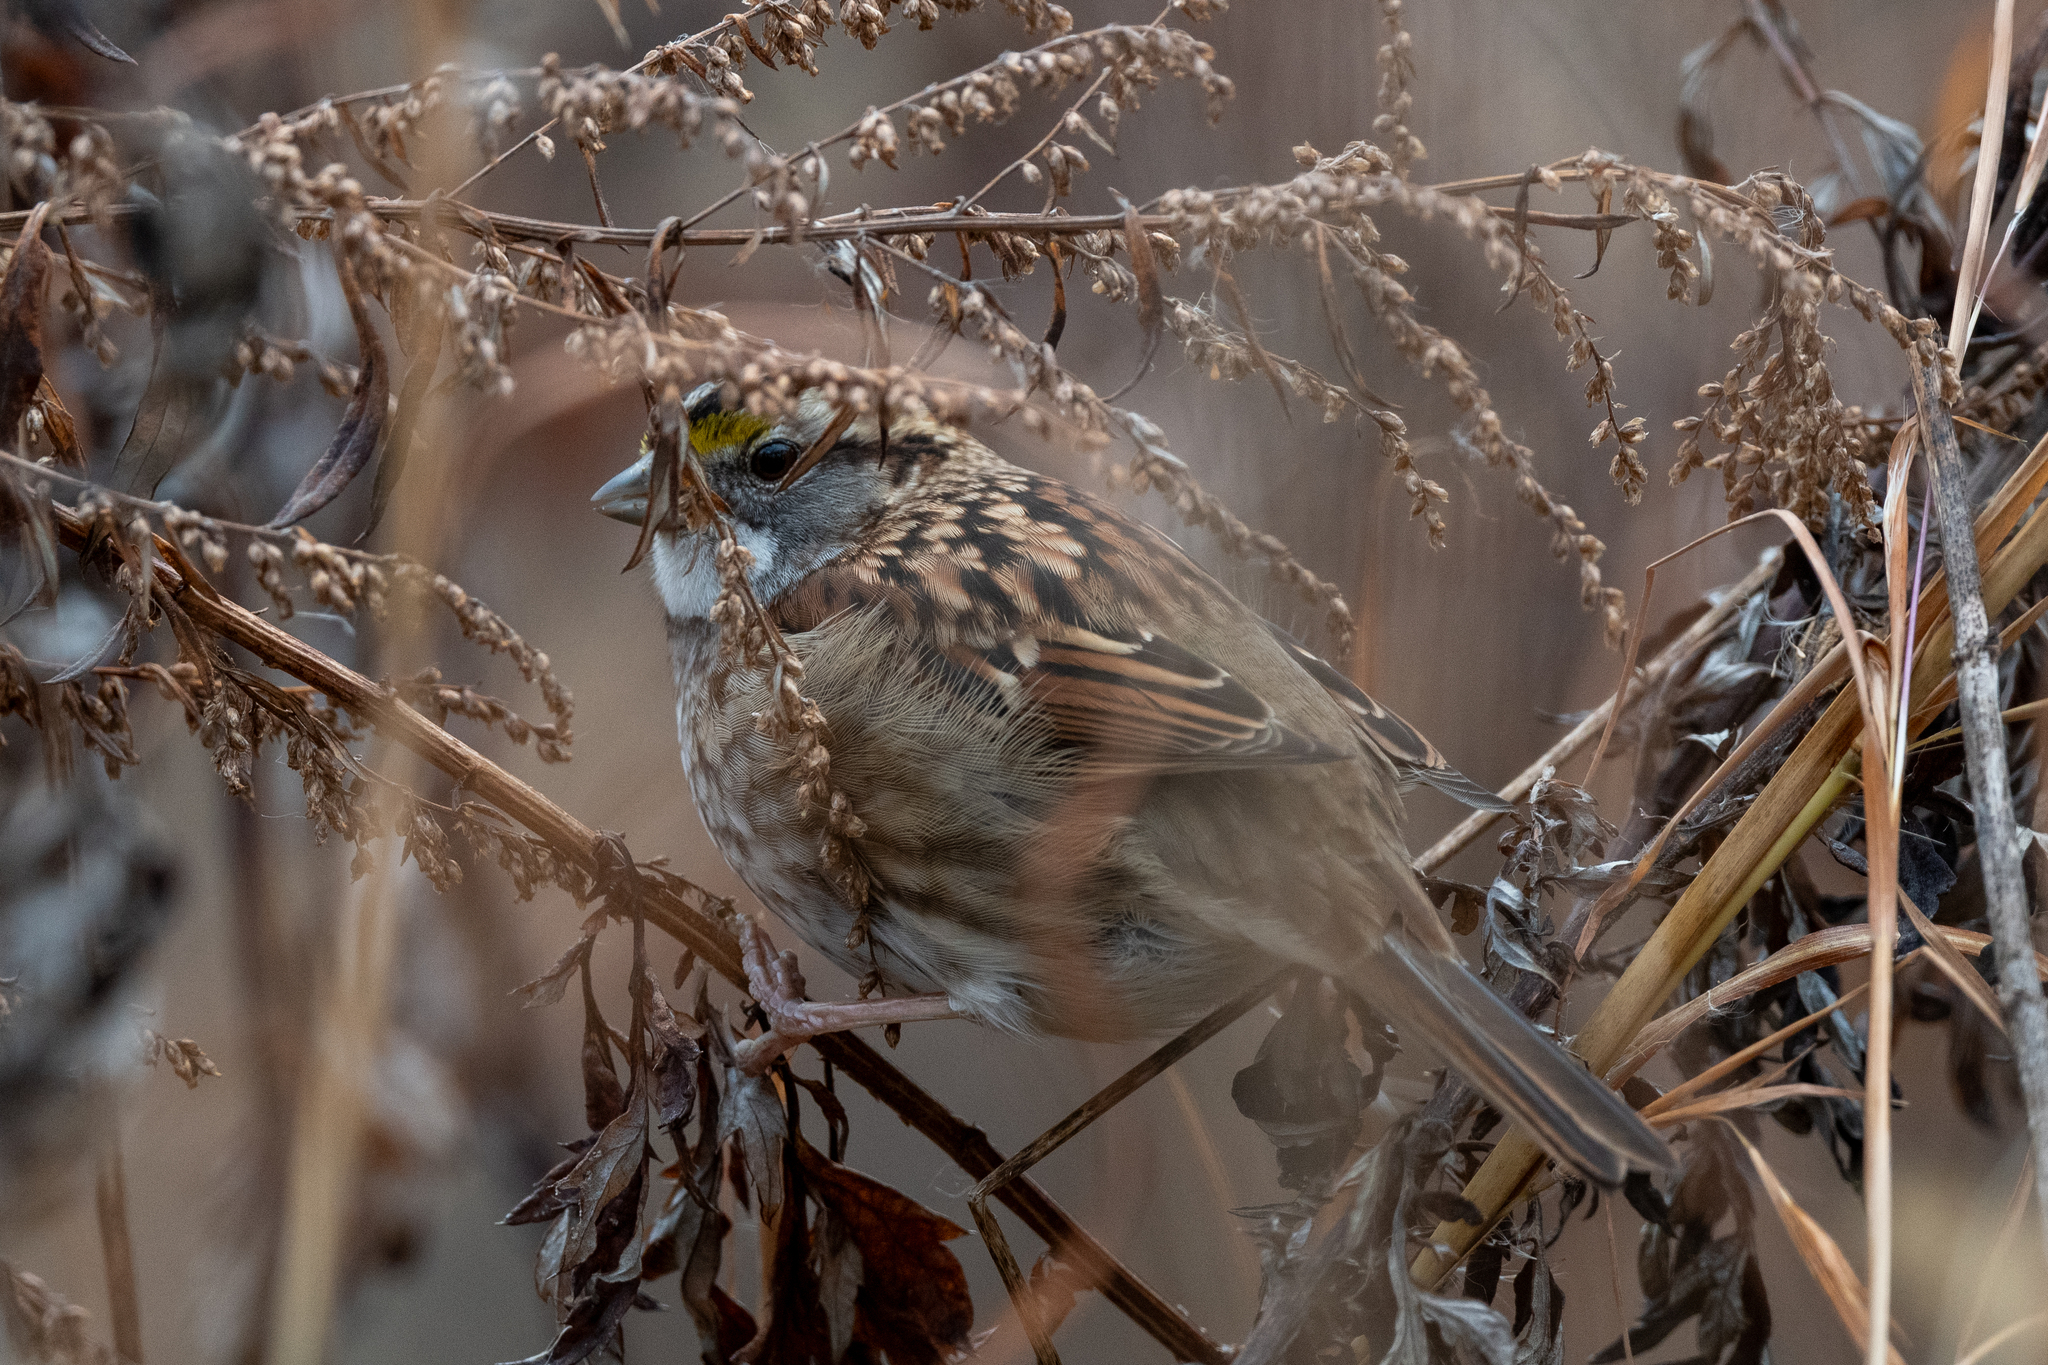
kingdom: Animalia
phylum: Chordata
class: Aves
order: Passeriformes
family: Passerellidae
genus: Zonotrichia
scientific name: Zonotrichia albicollis
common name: White-throated sparrow
